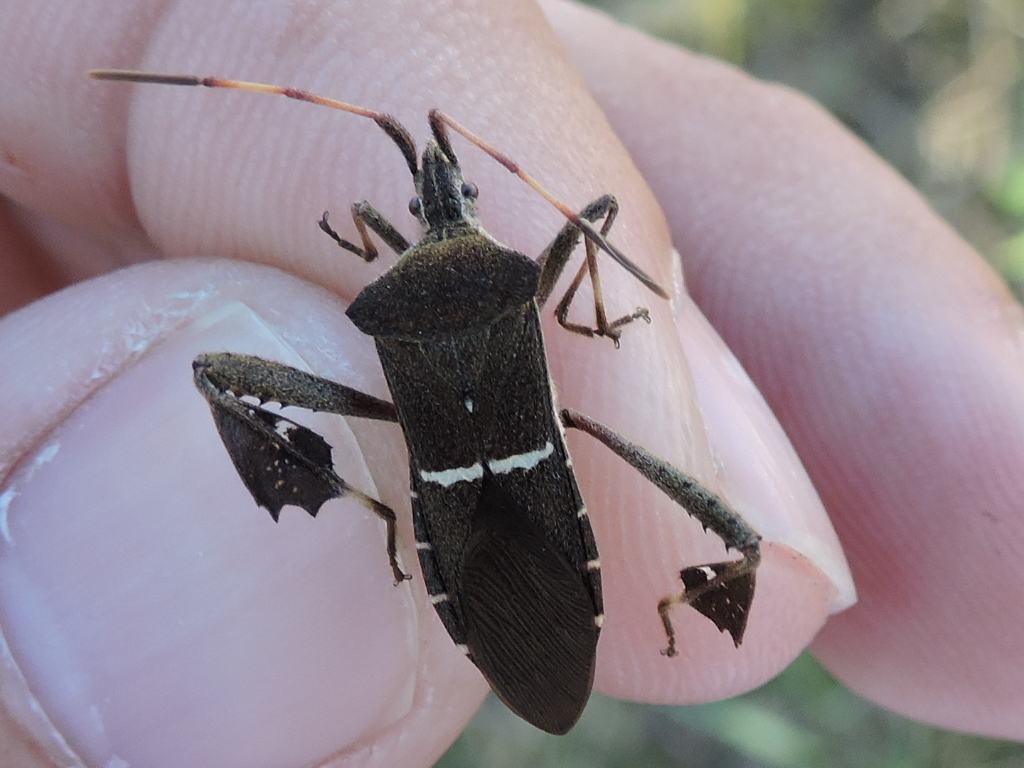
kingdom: Animalia
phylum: Arthropoda
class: Insecta
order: Hemiptera
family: Coreidae
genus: Leptoglossus
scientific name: Leptoglossus phyllopus
